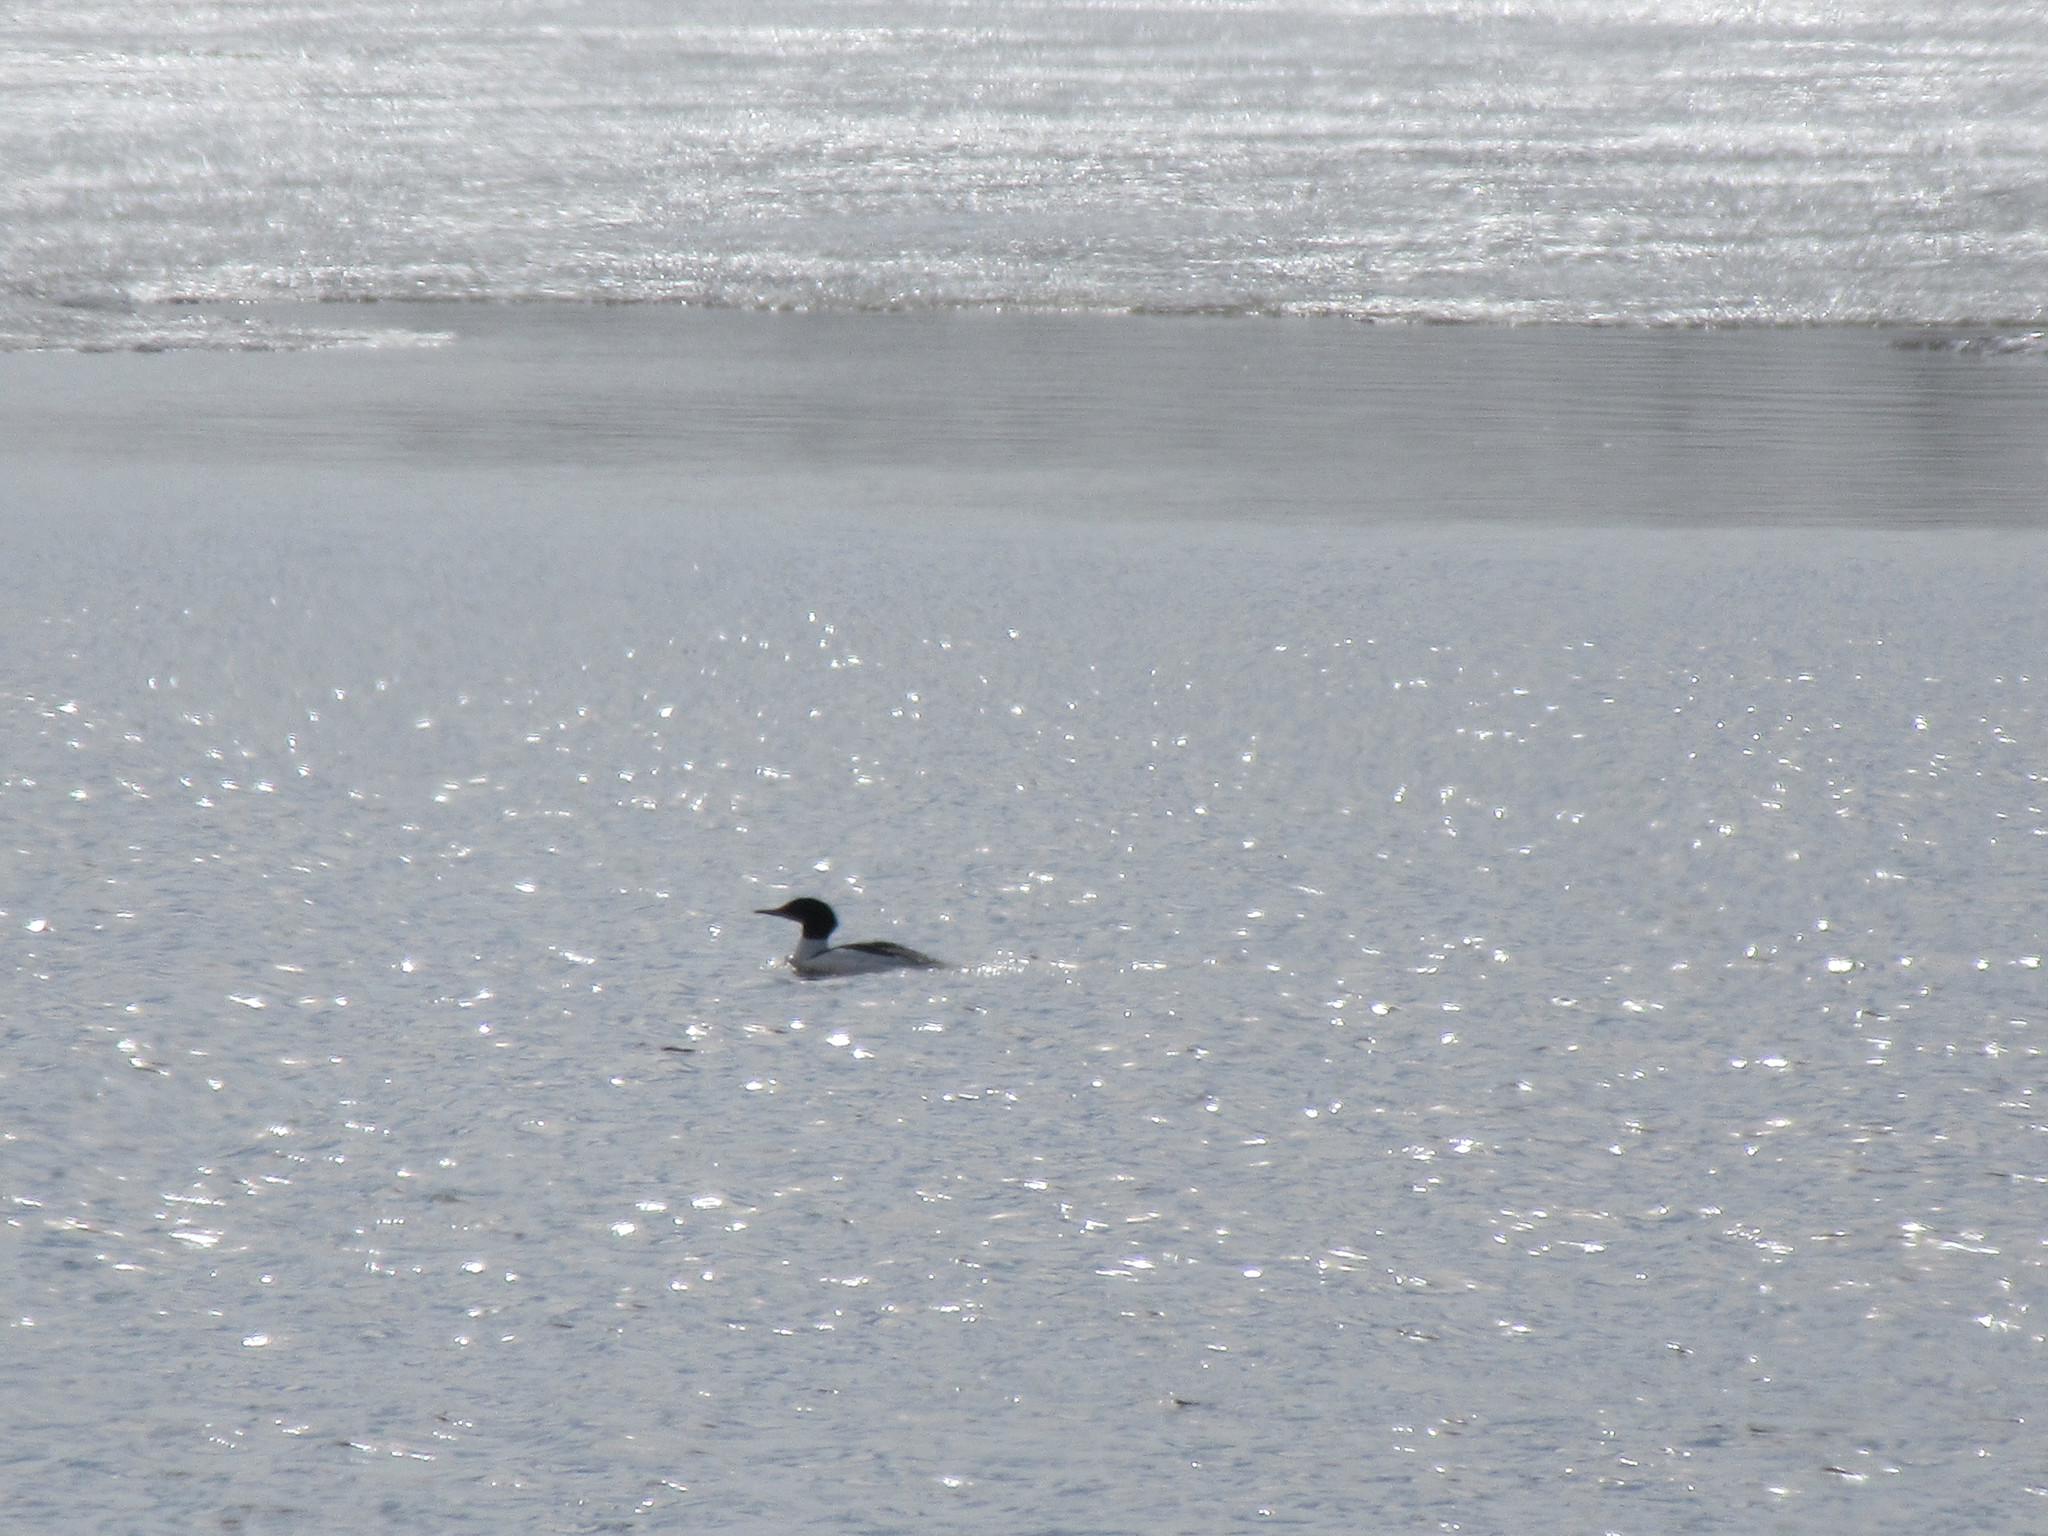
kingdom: Animalia
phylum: Chordata
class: Aves
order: Anseriformes
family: Anatidae
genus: Mergus
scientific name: Mergus merganser
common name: Common merganser
